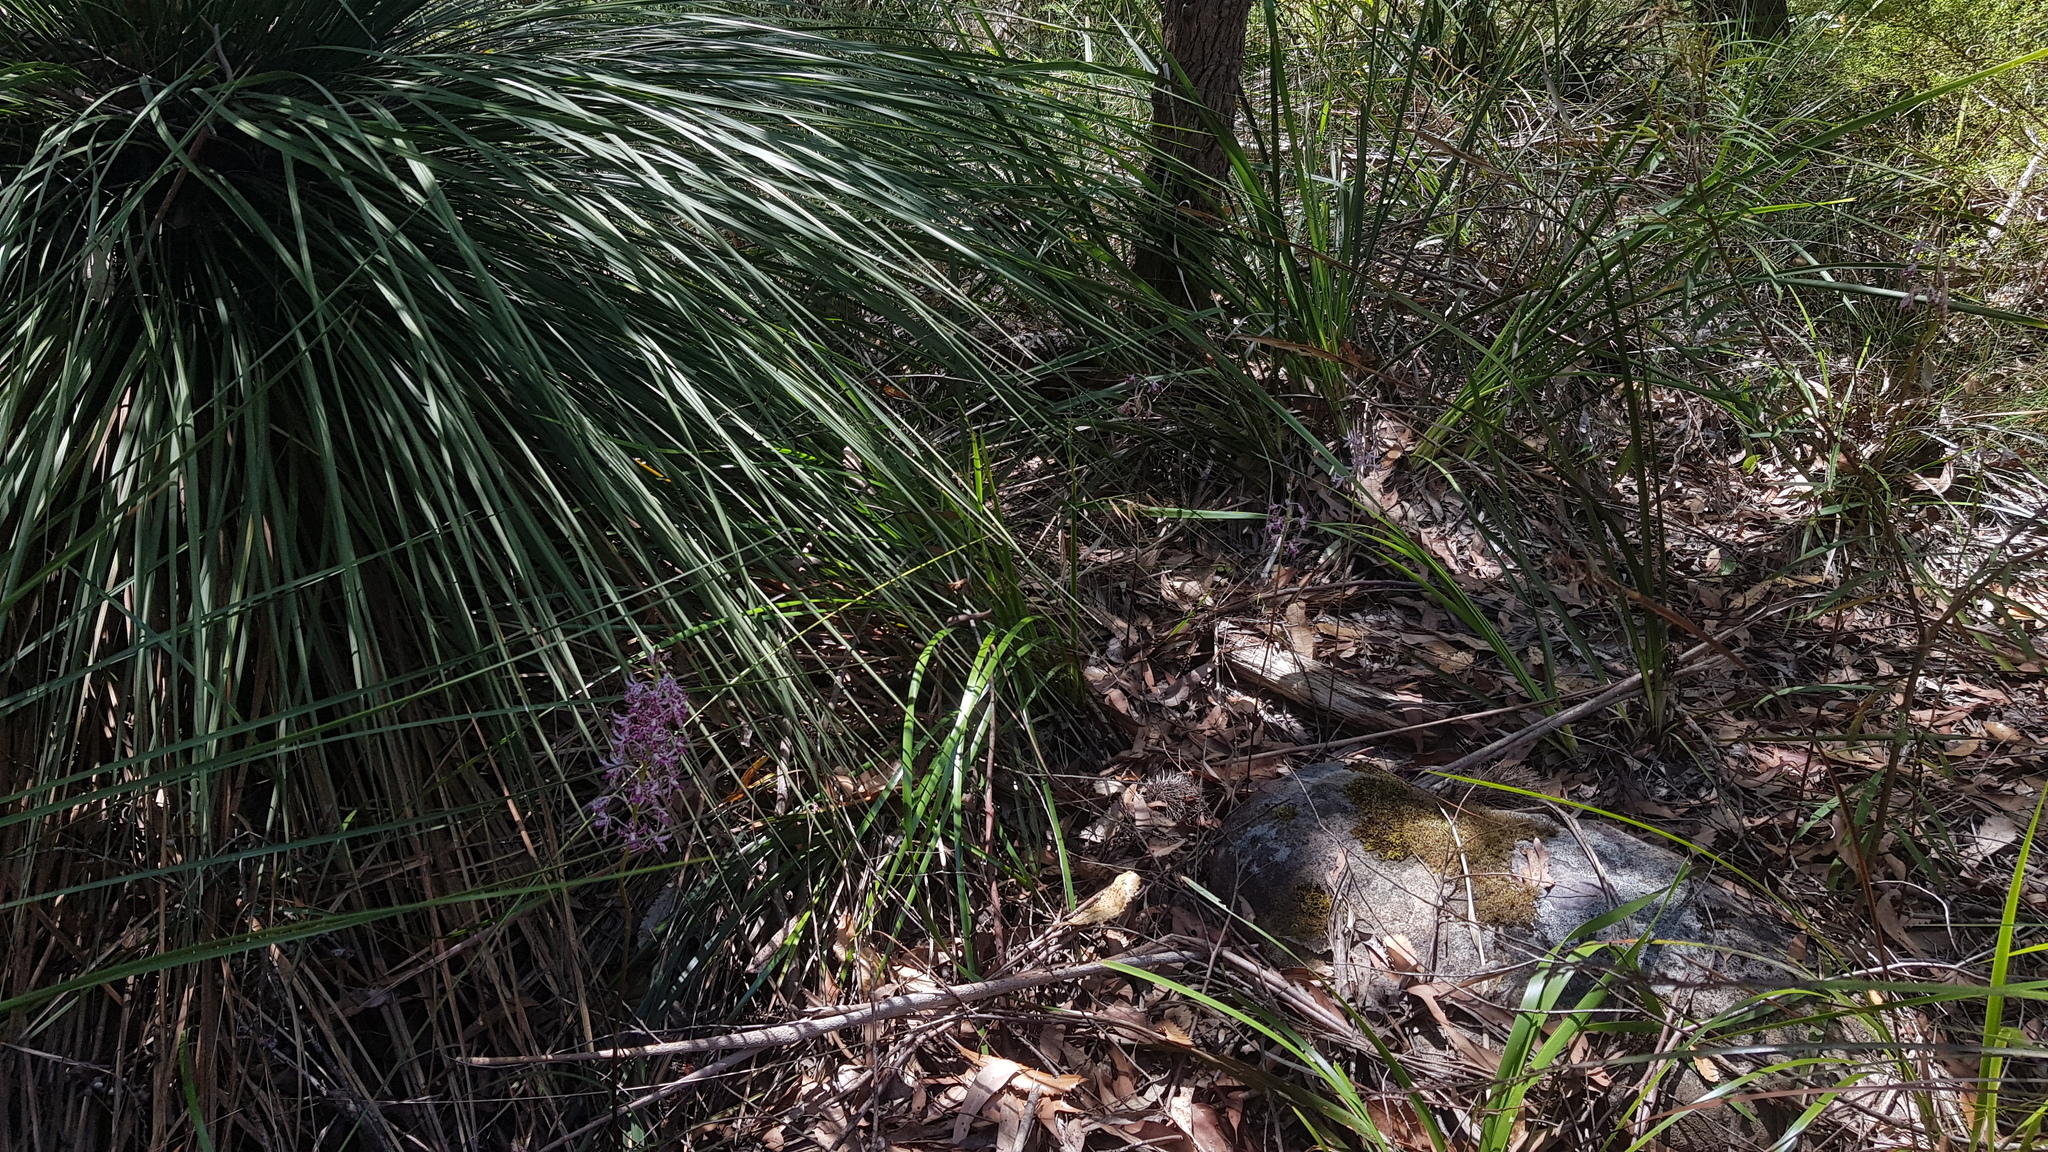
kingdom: Plantae
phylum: Tracheophyta
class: Liliopsida
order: Asparagales
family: Orchidaceae
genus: Dipodium
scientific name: Dipodium variegatum
